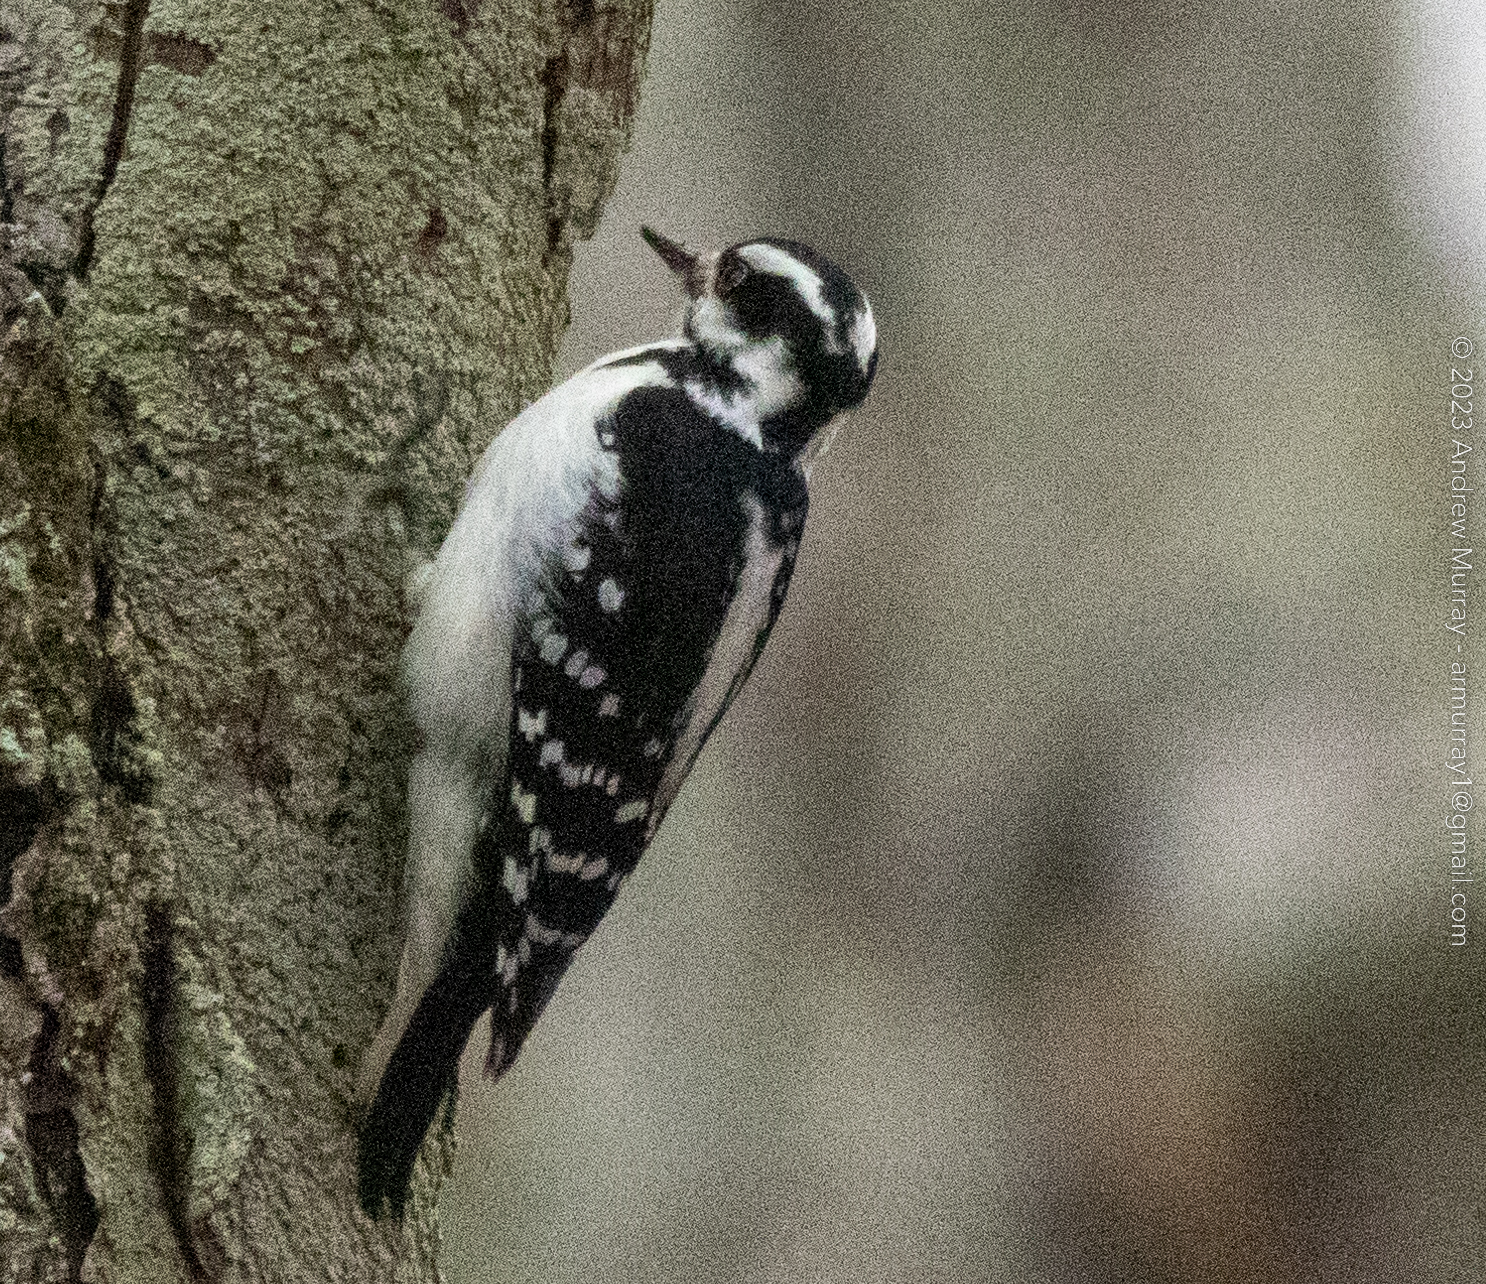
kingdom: Animalia
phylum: Chordata
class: Aves
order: Piciformes
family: Picidae
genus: Leuconotopicus
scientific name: Leuconotopicus villosus
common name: Hairy woodpecker
